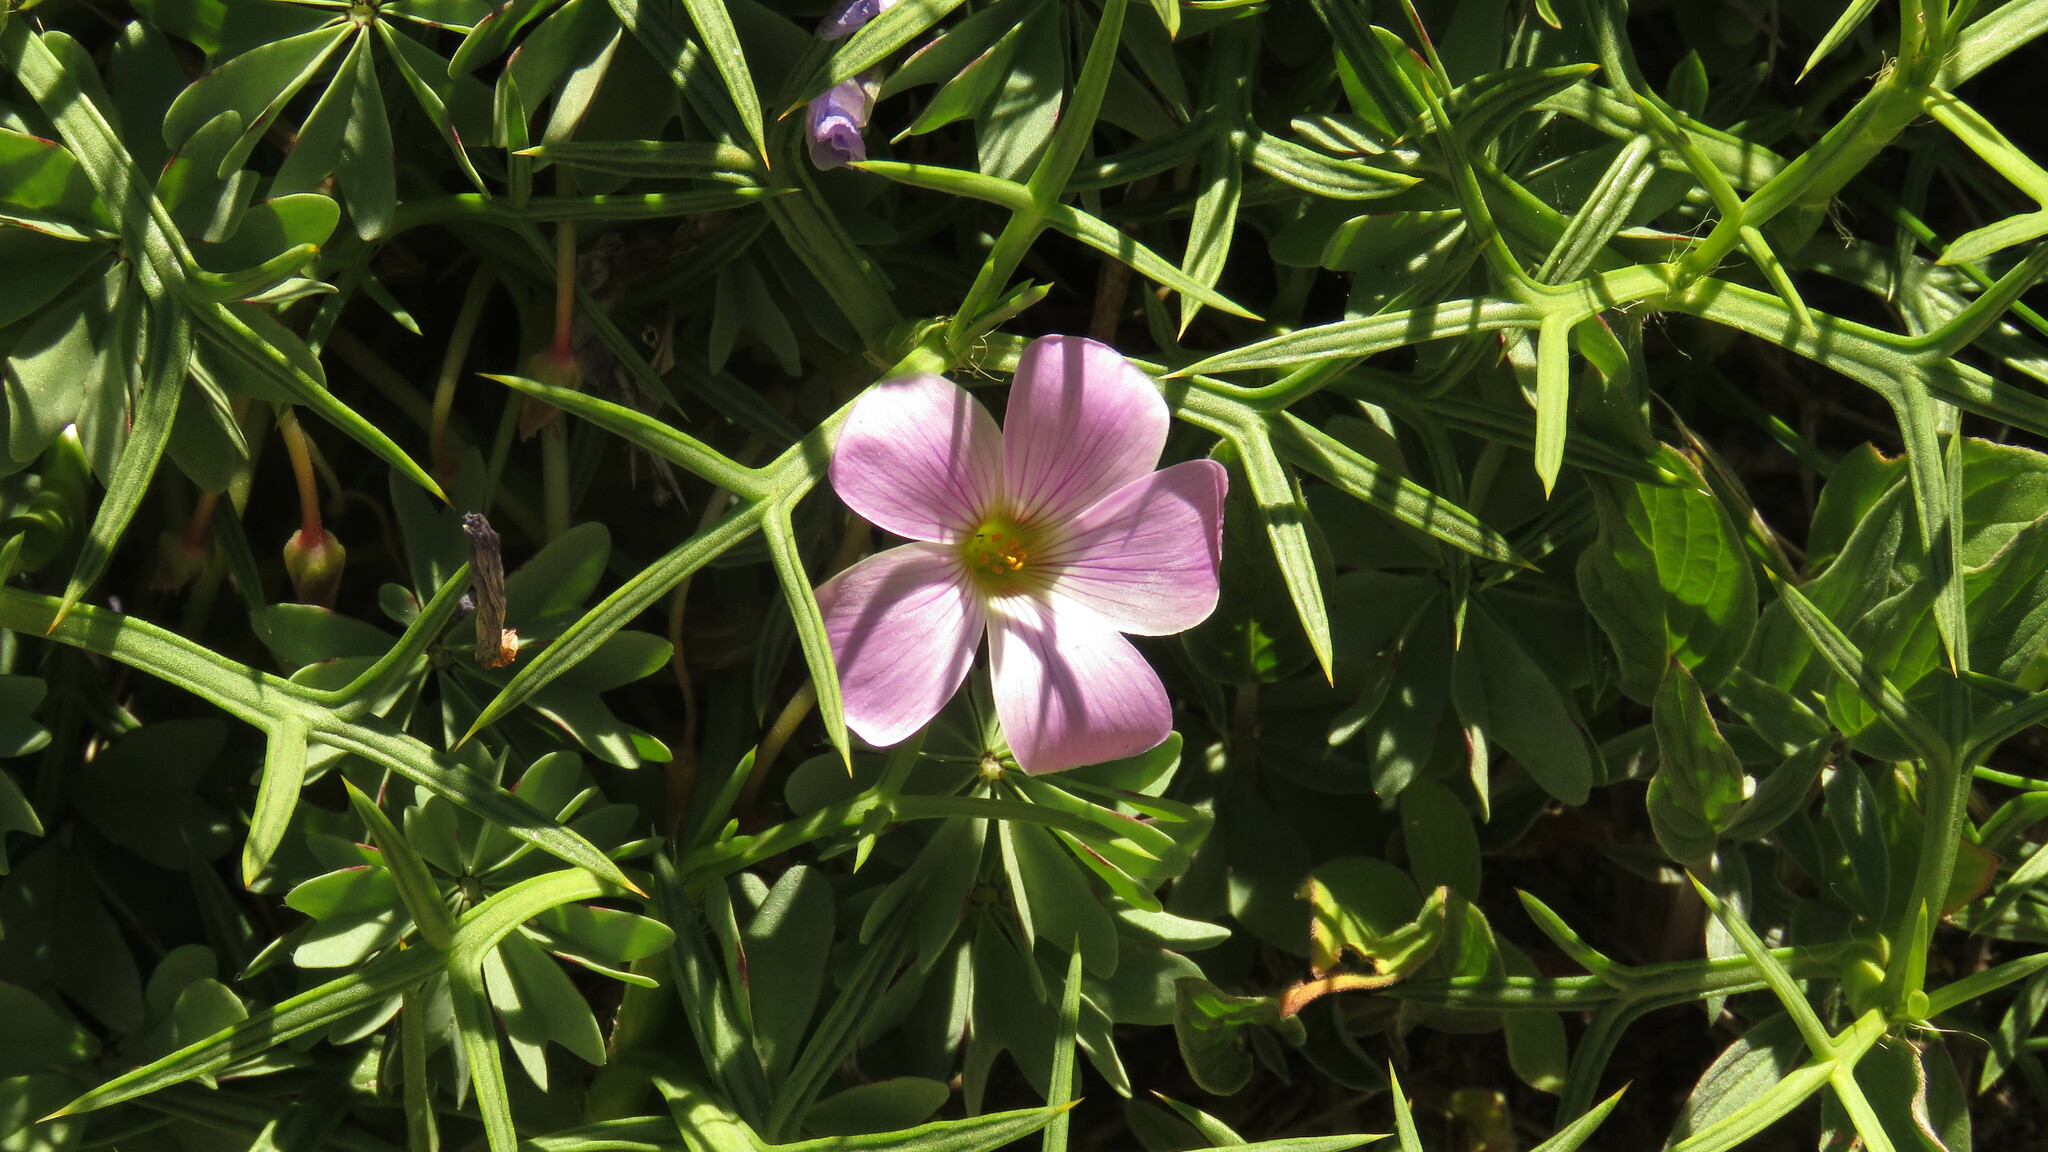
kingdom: Plantae
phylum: Tracheophyta
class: Magnoliopsida
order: Oxalidales
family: Oxalidaceae
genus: Oxalis
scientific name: Oxalis adenophylla
